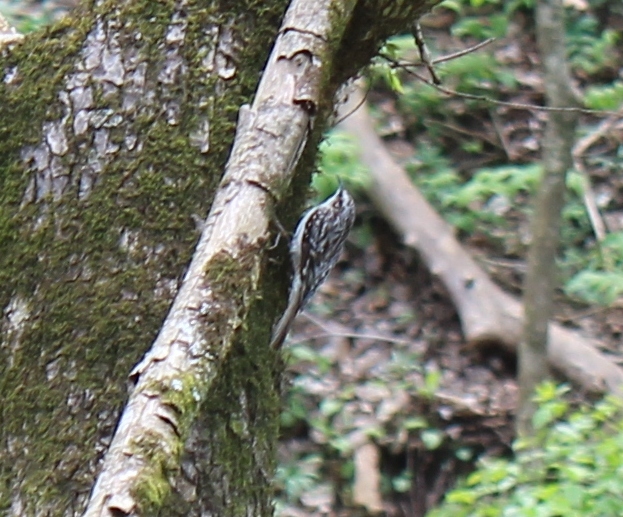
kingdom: Animalia
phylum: Chordata
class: Aves
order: Passeriformes
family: Certhiidae
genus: Certhia
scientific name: Certhia americana
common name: Brown creeper
